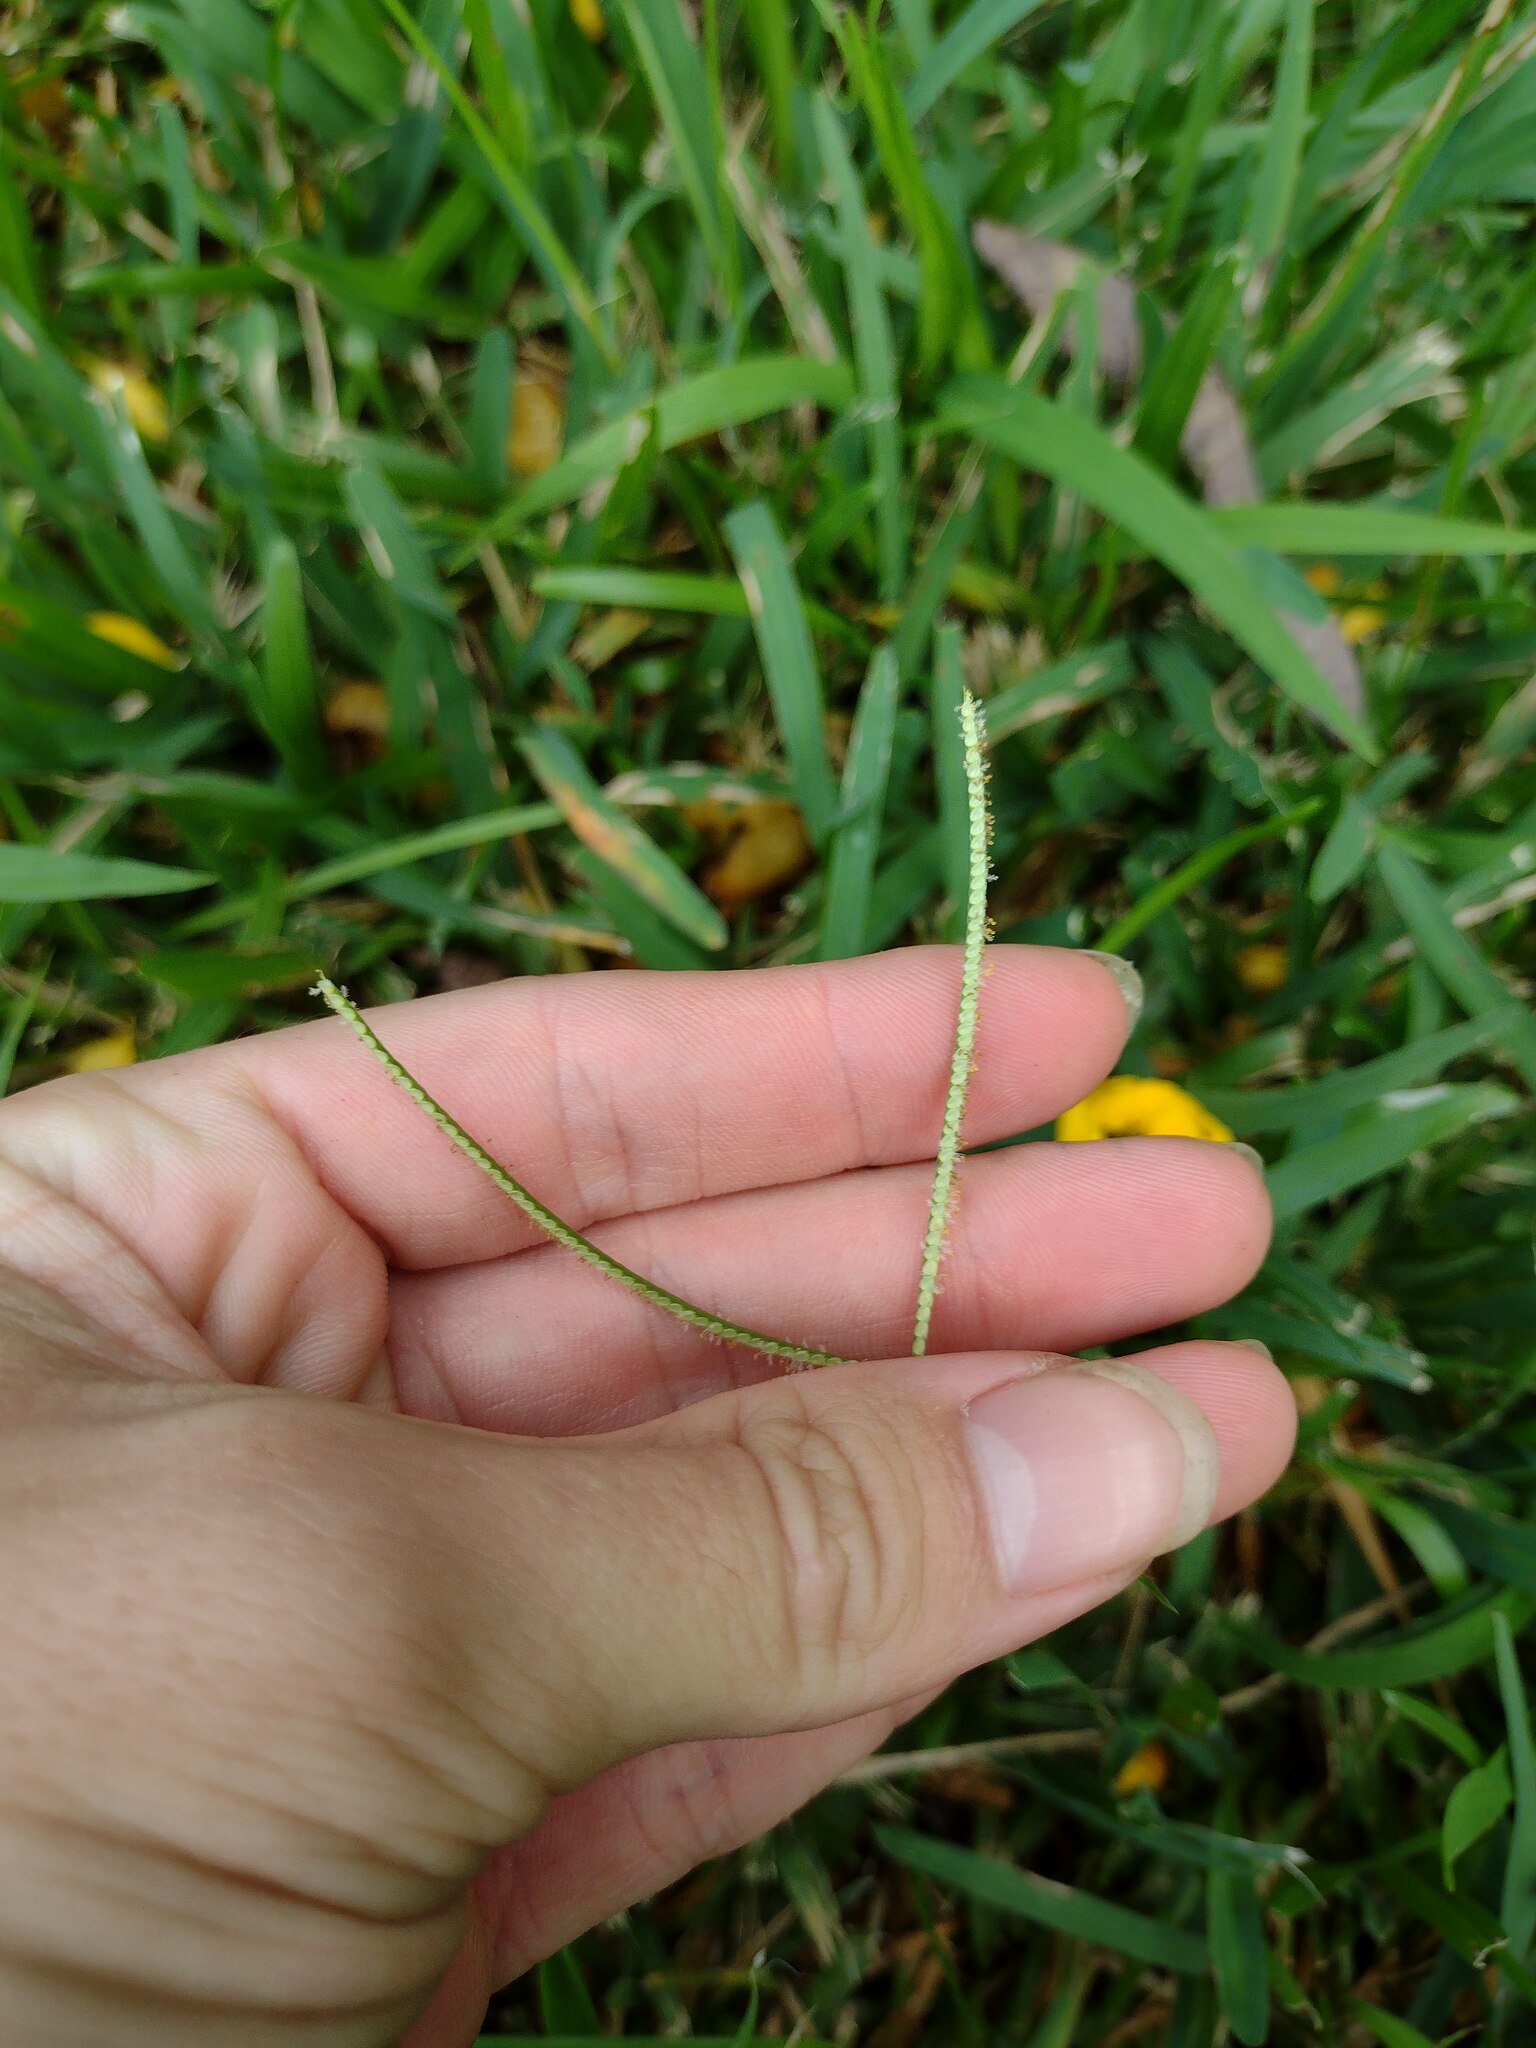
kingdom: Plantae
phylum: Tracheophyta
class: Liliopsida
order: Poales
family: Poaceae
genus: Paspalum
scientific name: Paspalum conjugatum
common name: Hilograss
